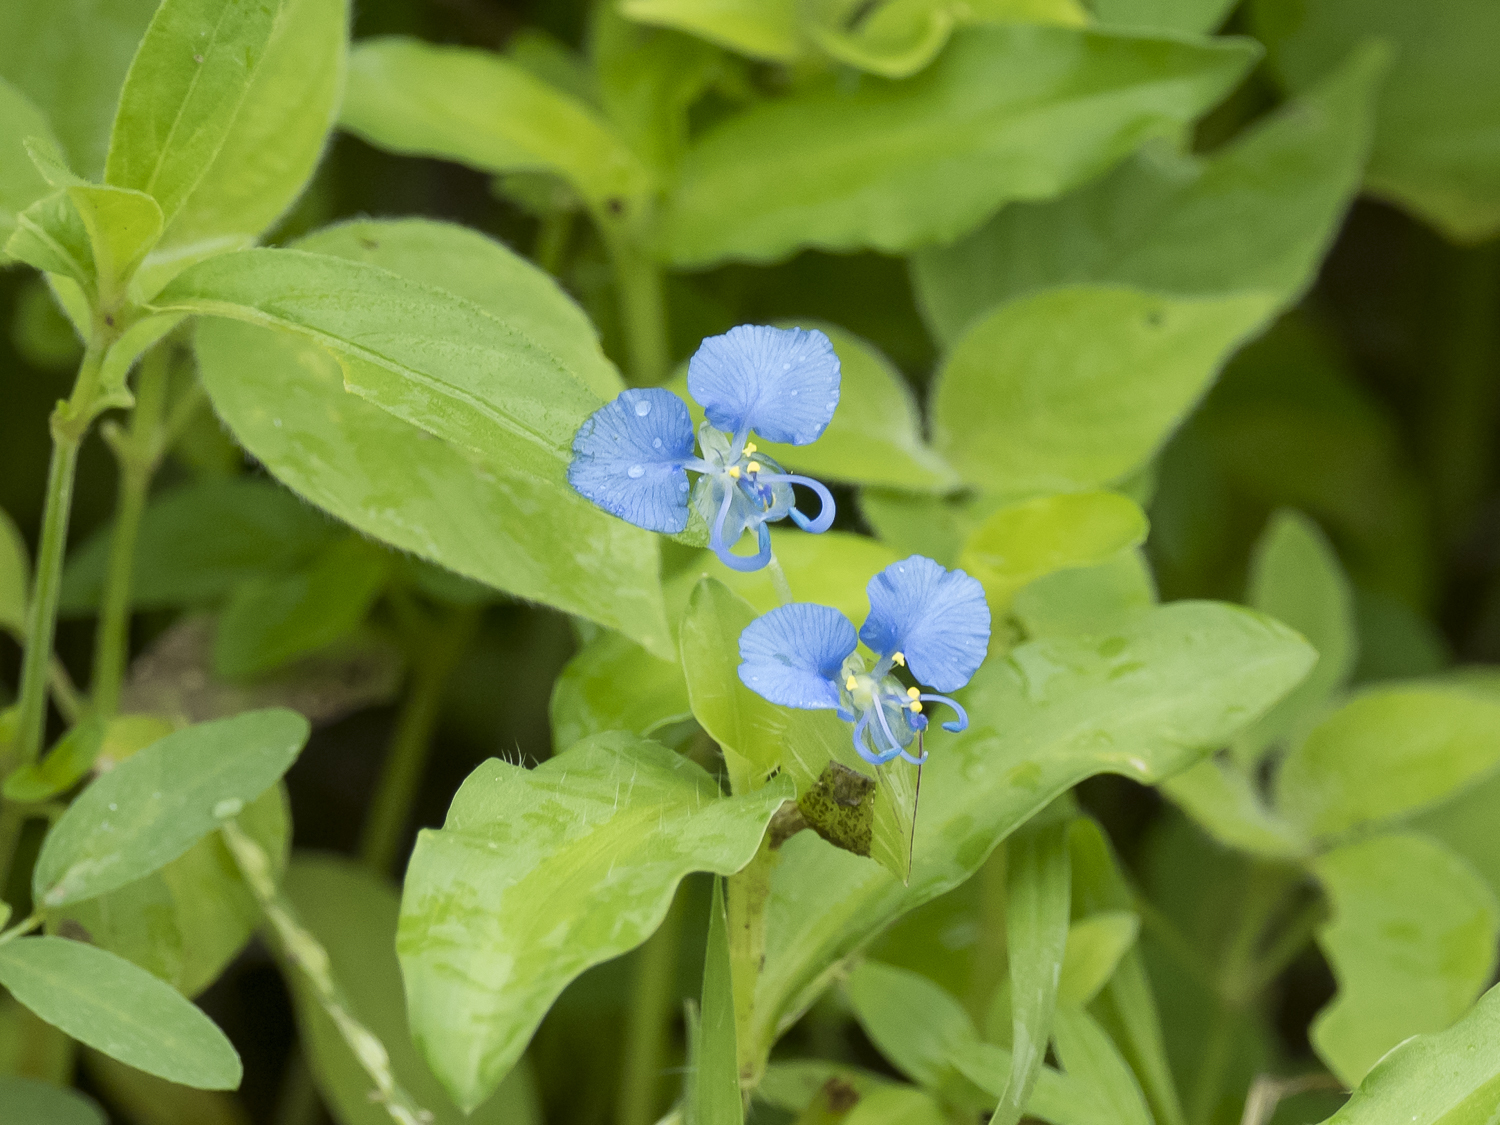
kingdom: Plantae
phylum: Tracheophyta
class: Liliopsida
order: Commelinales
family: Commelinaceae
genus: Commelina
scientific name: Commelina forskaolii
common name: Rat's ear
